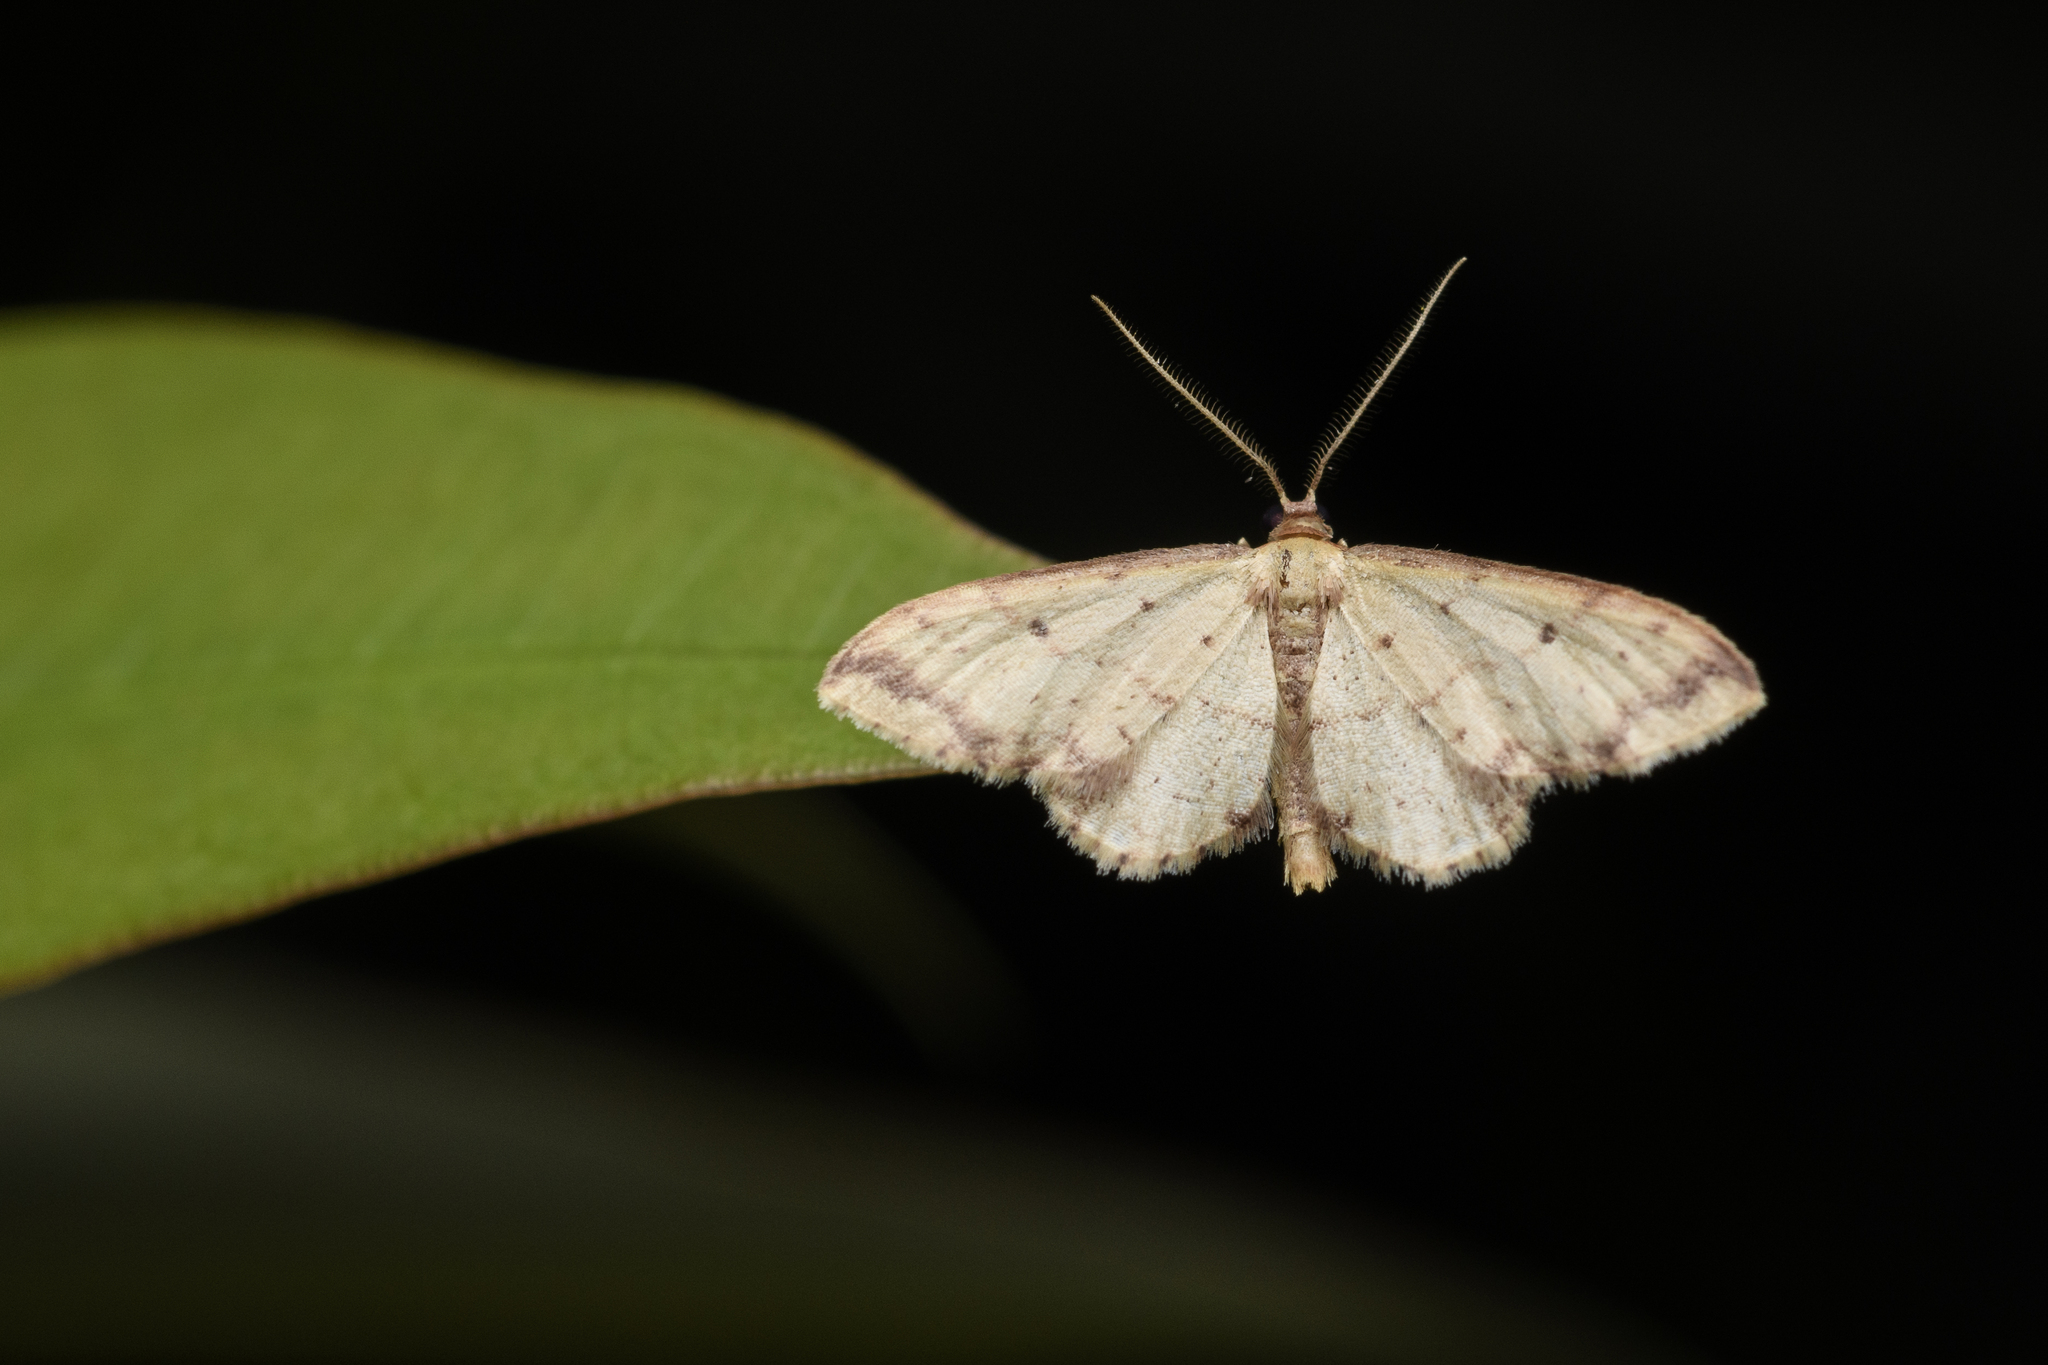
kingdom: Animalia
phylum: Arthropoda
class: Insecta
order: Lepidoptera
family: Geometridae
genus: Idaea
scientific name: Idaea impexa
